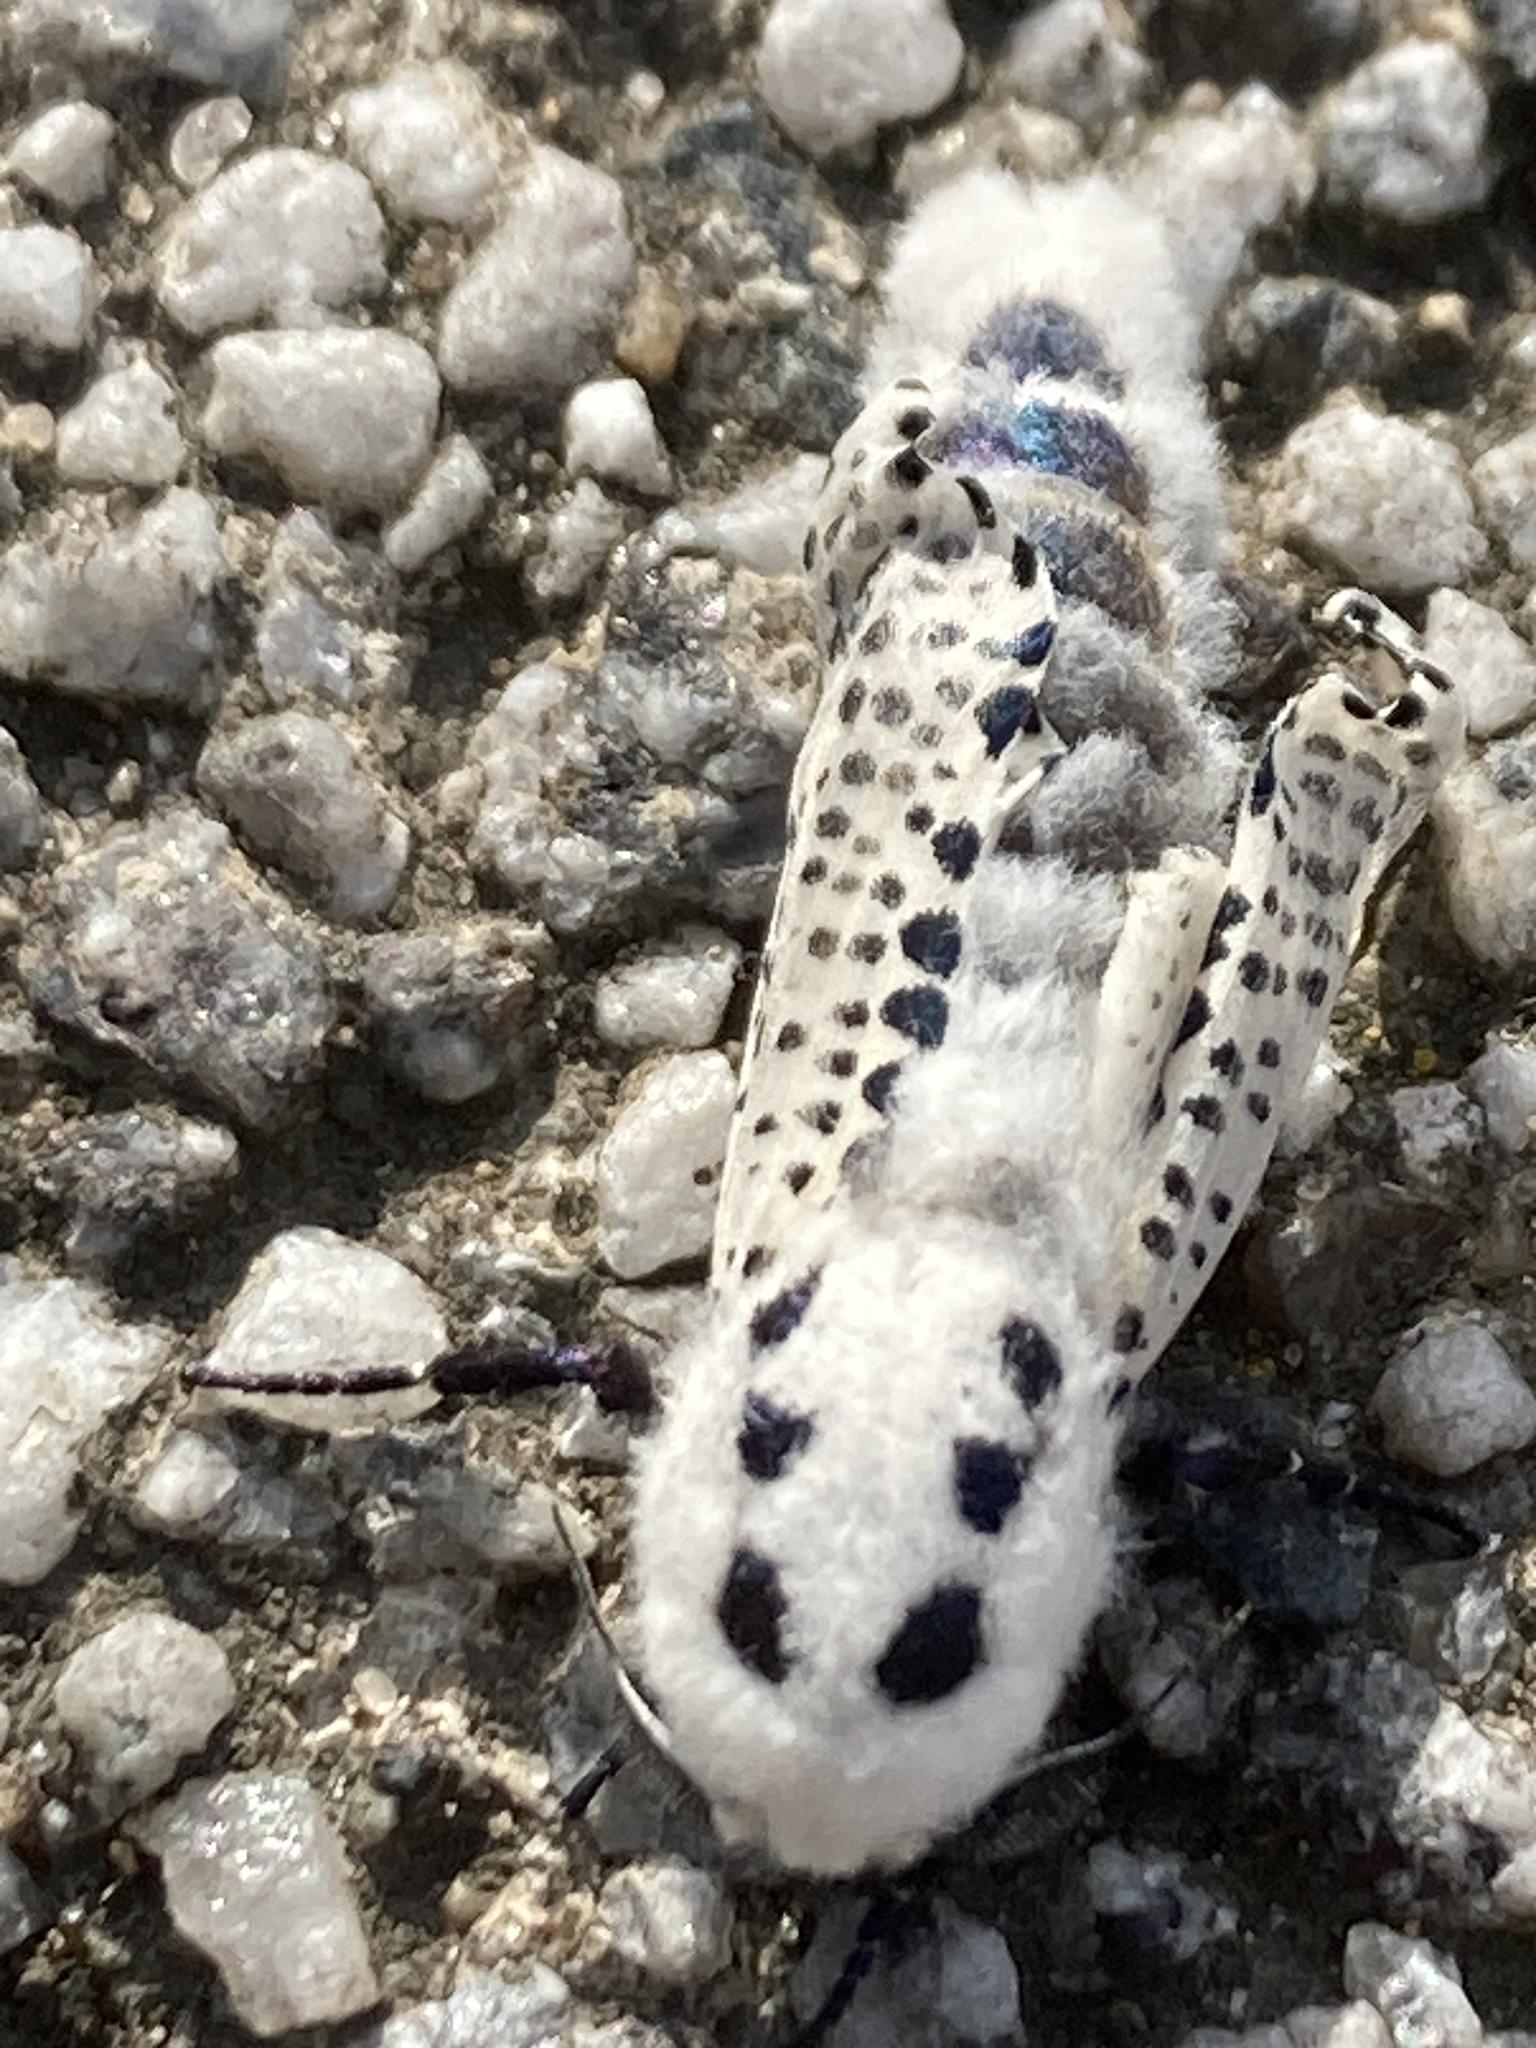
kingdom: Animalia
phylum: Arthropoda
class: Insecta
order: Lepidoptera
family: Cossidae
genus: Zeuzera
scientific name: Zeuzera pyrina
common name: Leopard moth
